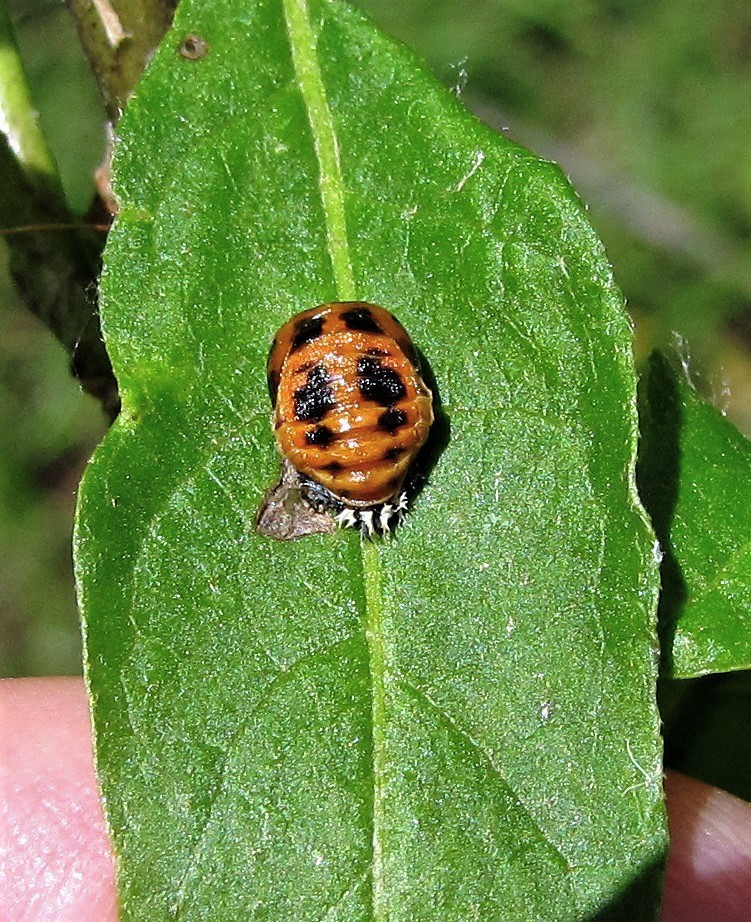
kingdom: Animalia
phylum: Arthropoda
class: Insecta
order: Coleoptera
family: Coccinellidae
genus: Harmonia
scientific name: Harmonia axyridis
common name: Harlequin ladybird
